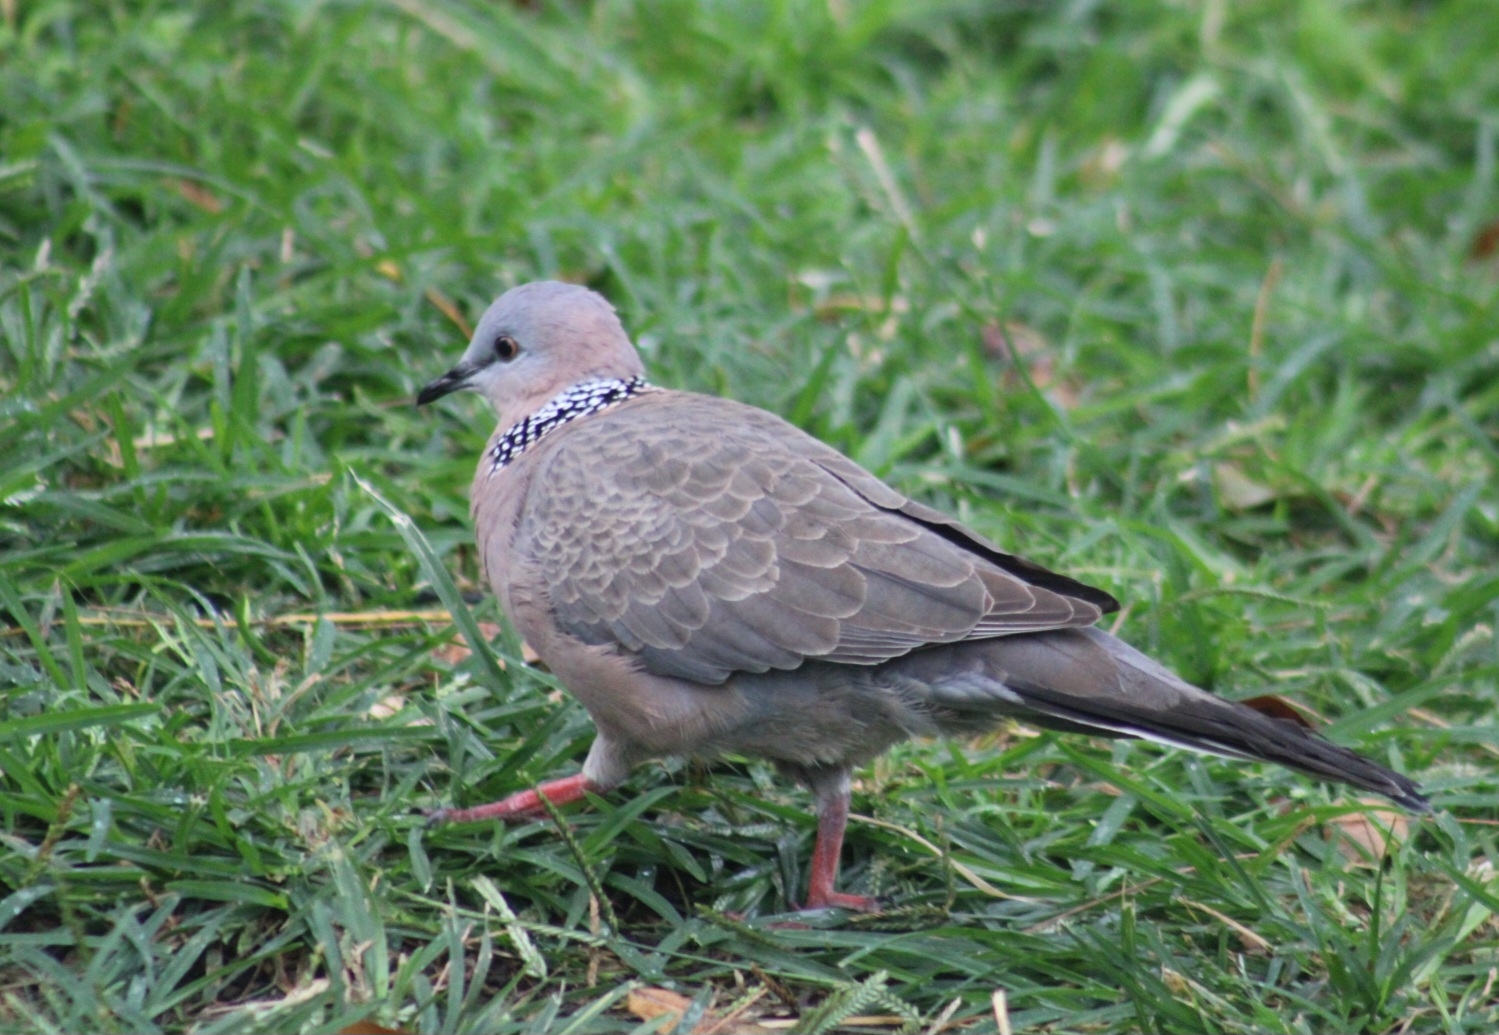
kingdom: Animalia
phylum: Chordata
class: Aves
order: Columbiformes
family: Columbidae
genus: Spilopelia
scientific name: Spilopelia chinensis
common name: Spotted dove
